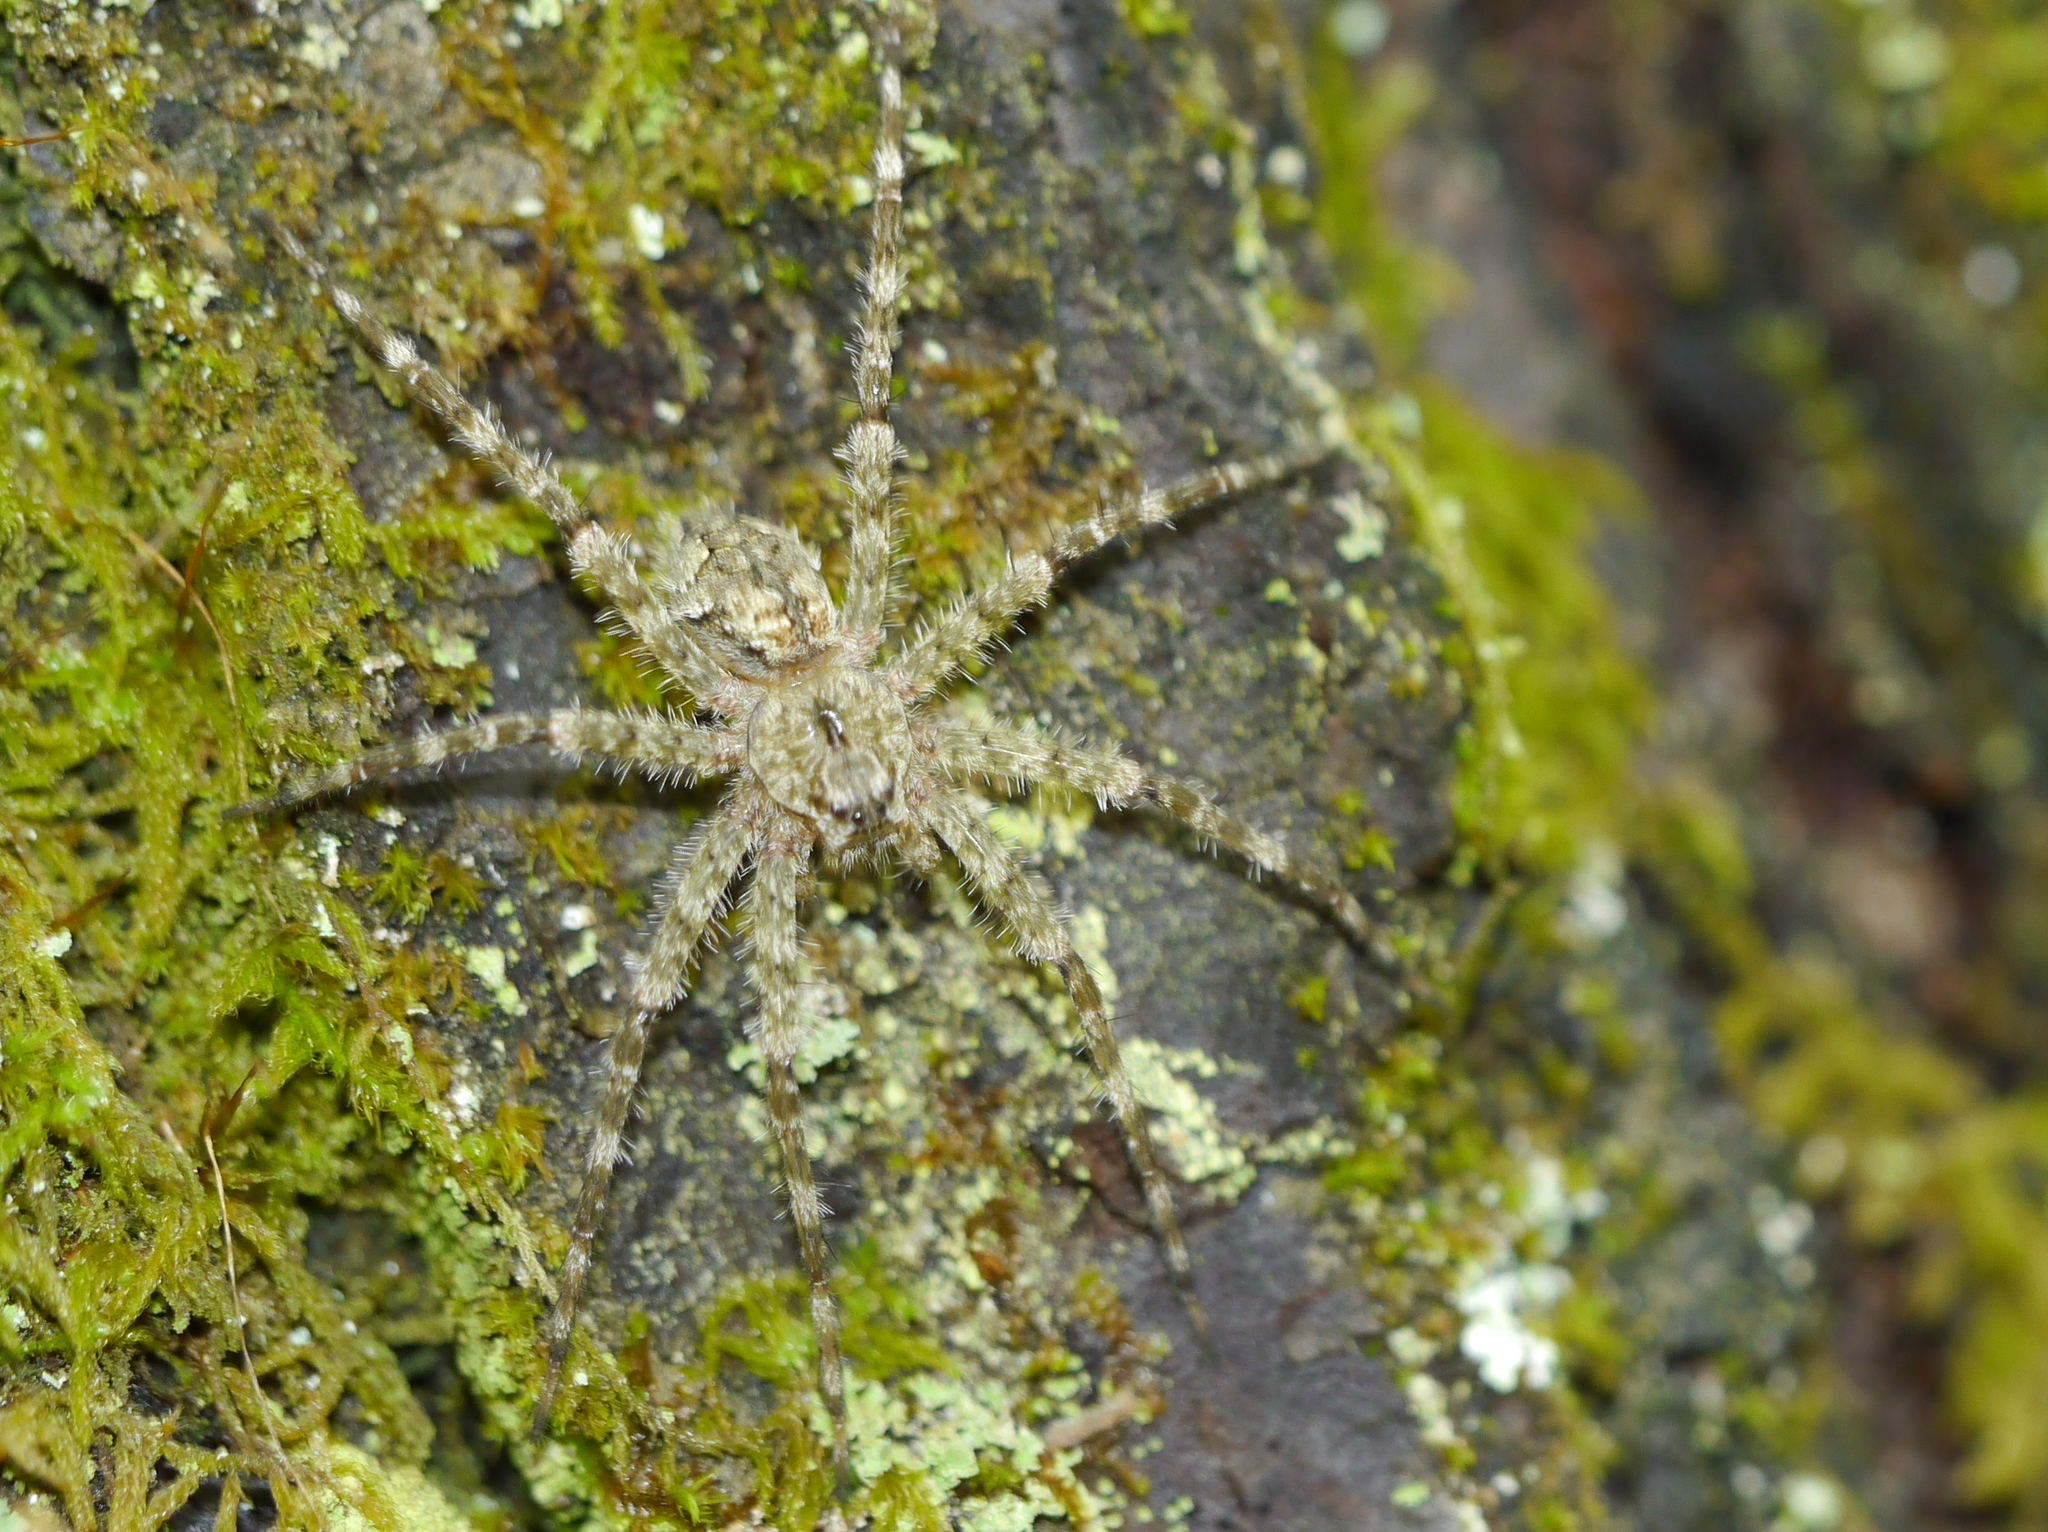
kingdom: Animalia
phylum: Arthropoda
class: Arachnida
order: Araneae
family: Pisauridae
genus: Dolomedes
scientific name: Dolomedes albineus
